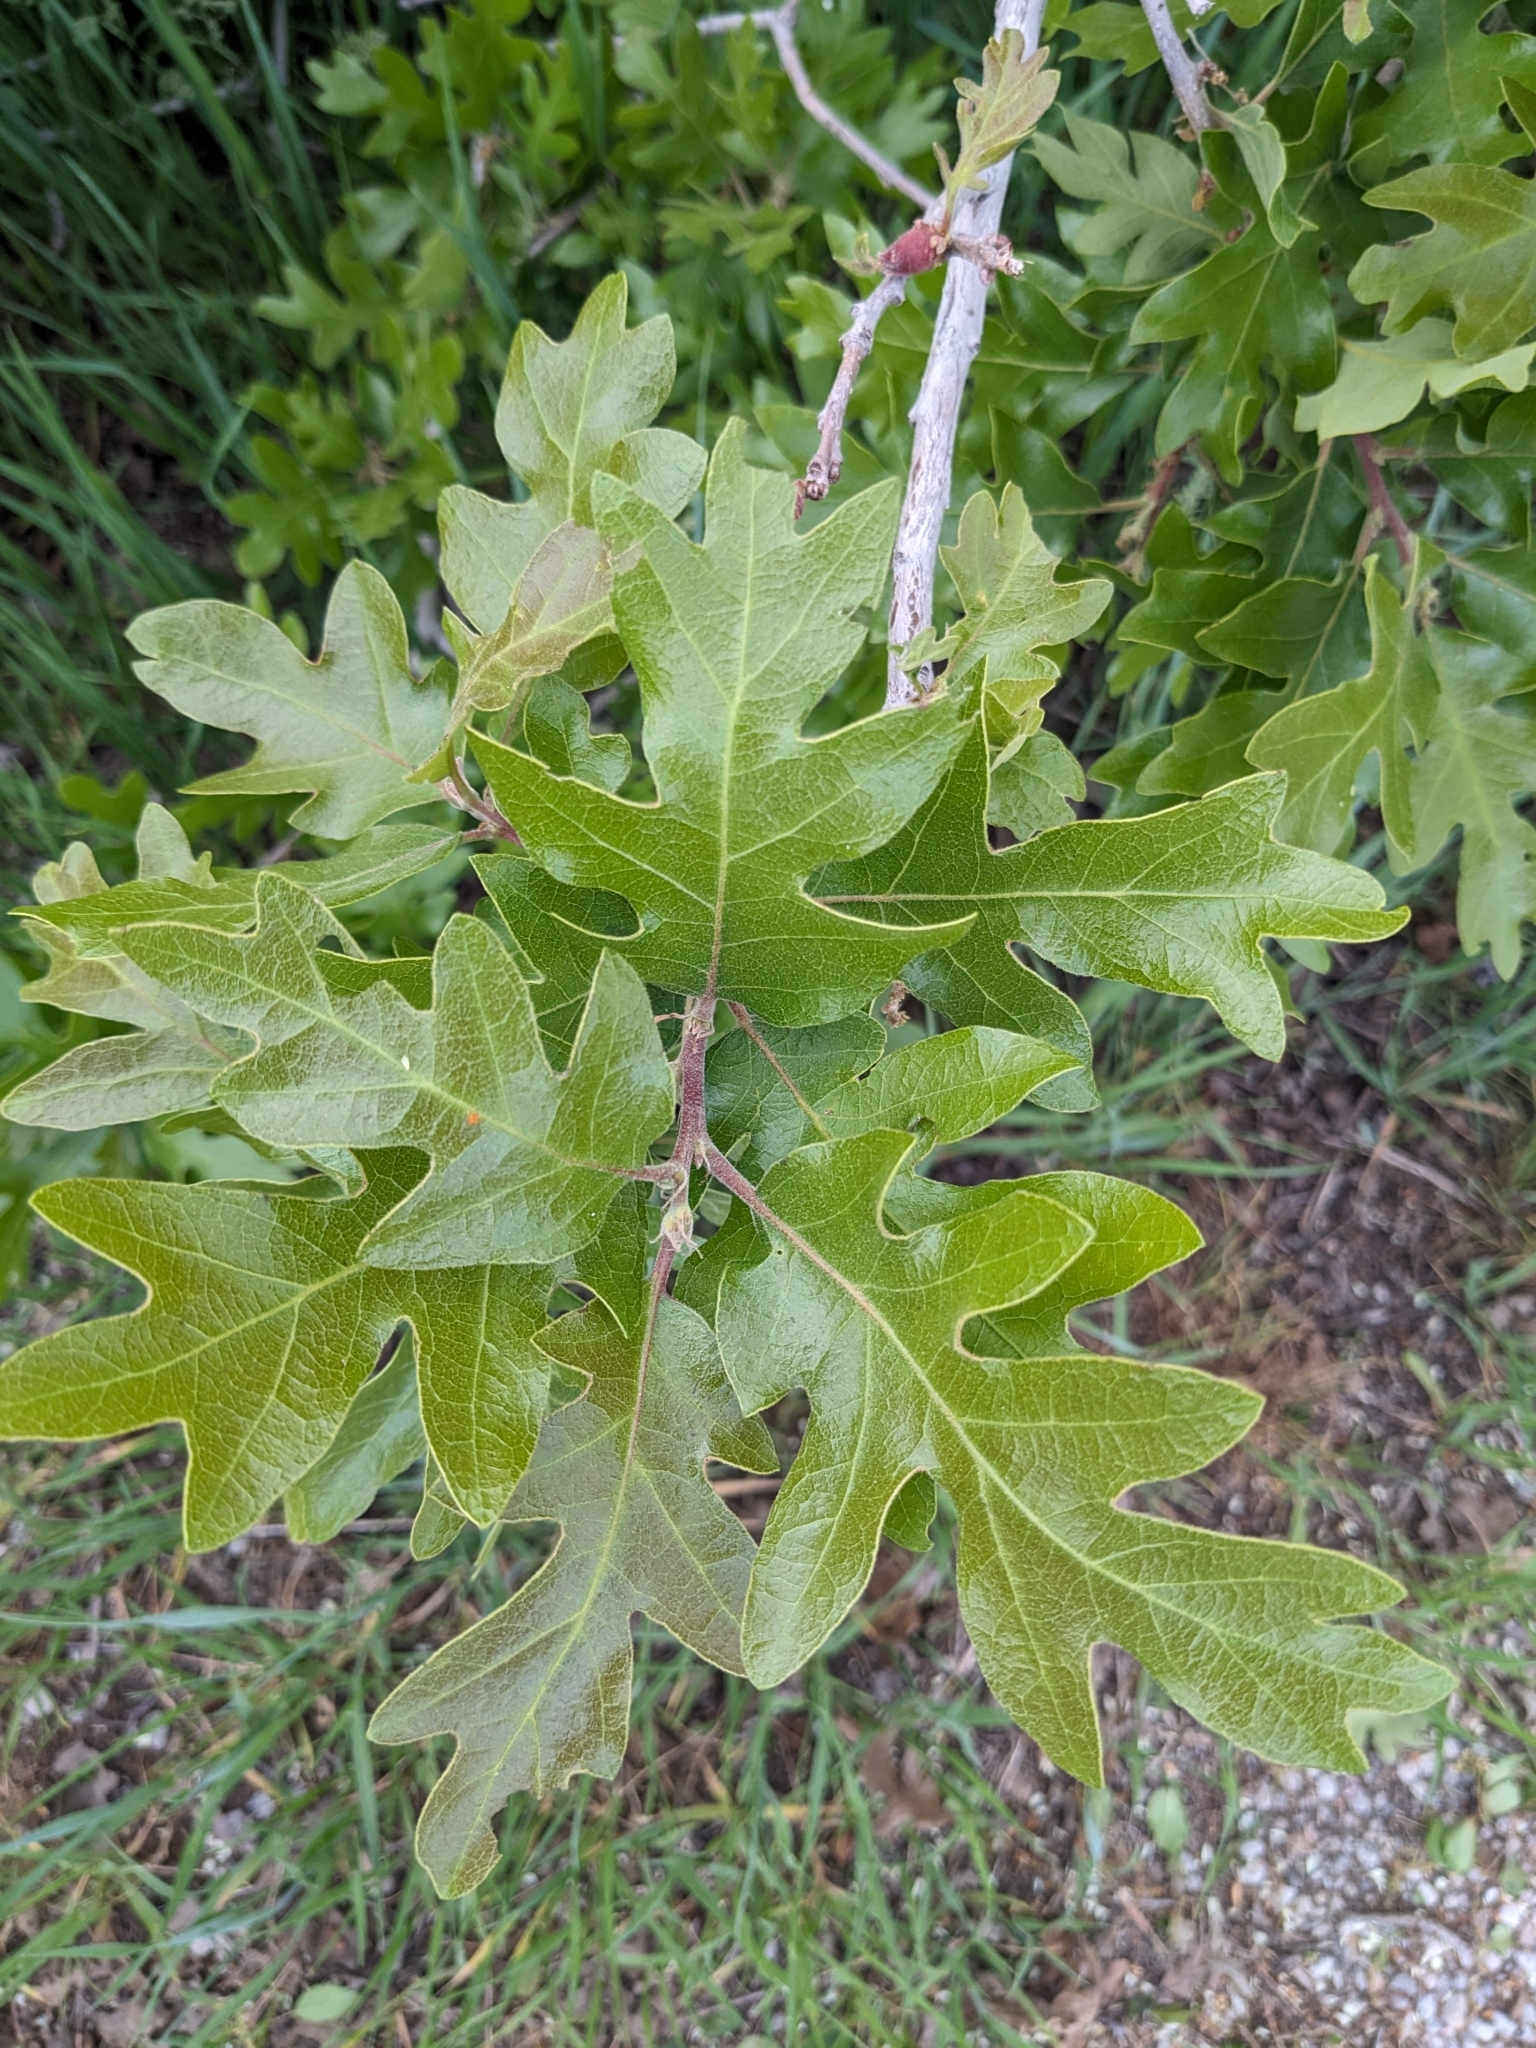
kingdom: Plantae
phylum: Tracheophyta
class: Magnoliopsida
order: Fagales
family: Fagaceae
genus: Quercus
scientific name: Quercus gambelii
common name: Gambel oak
